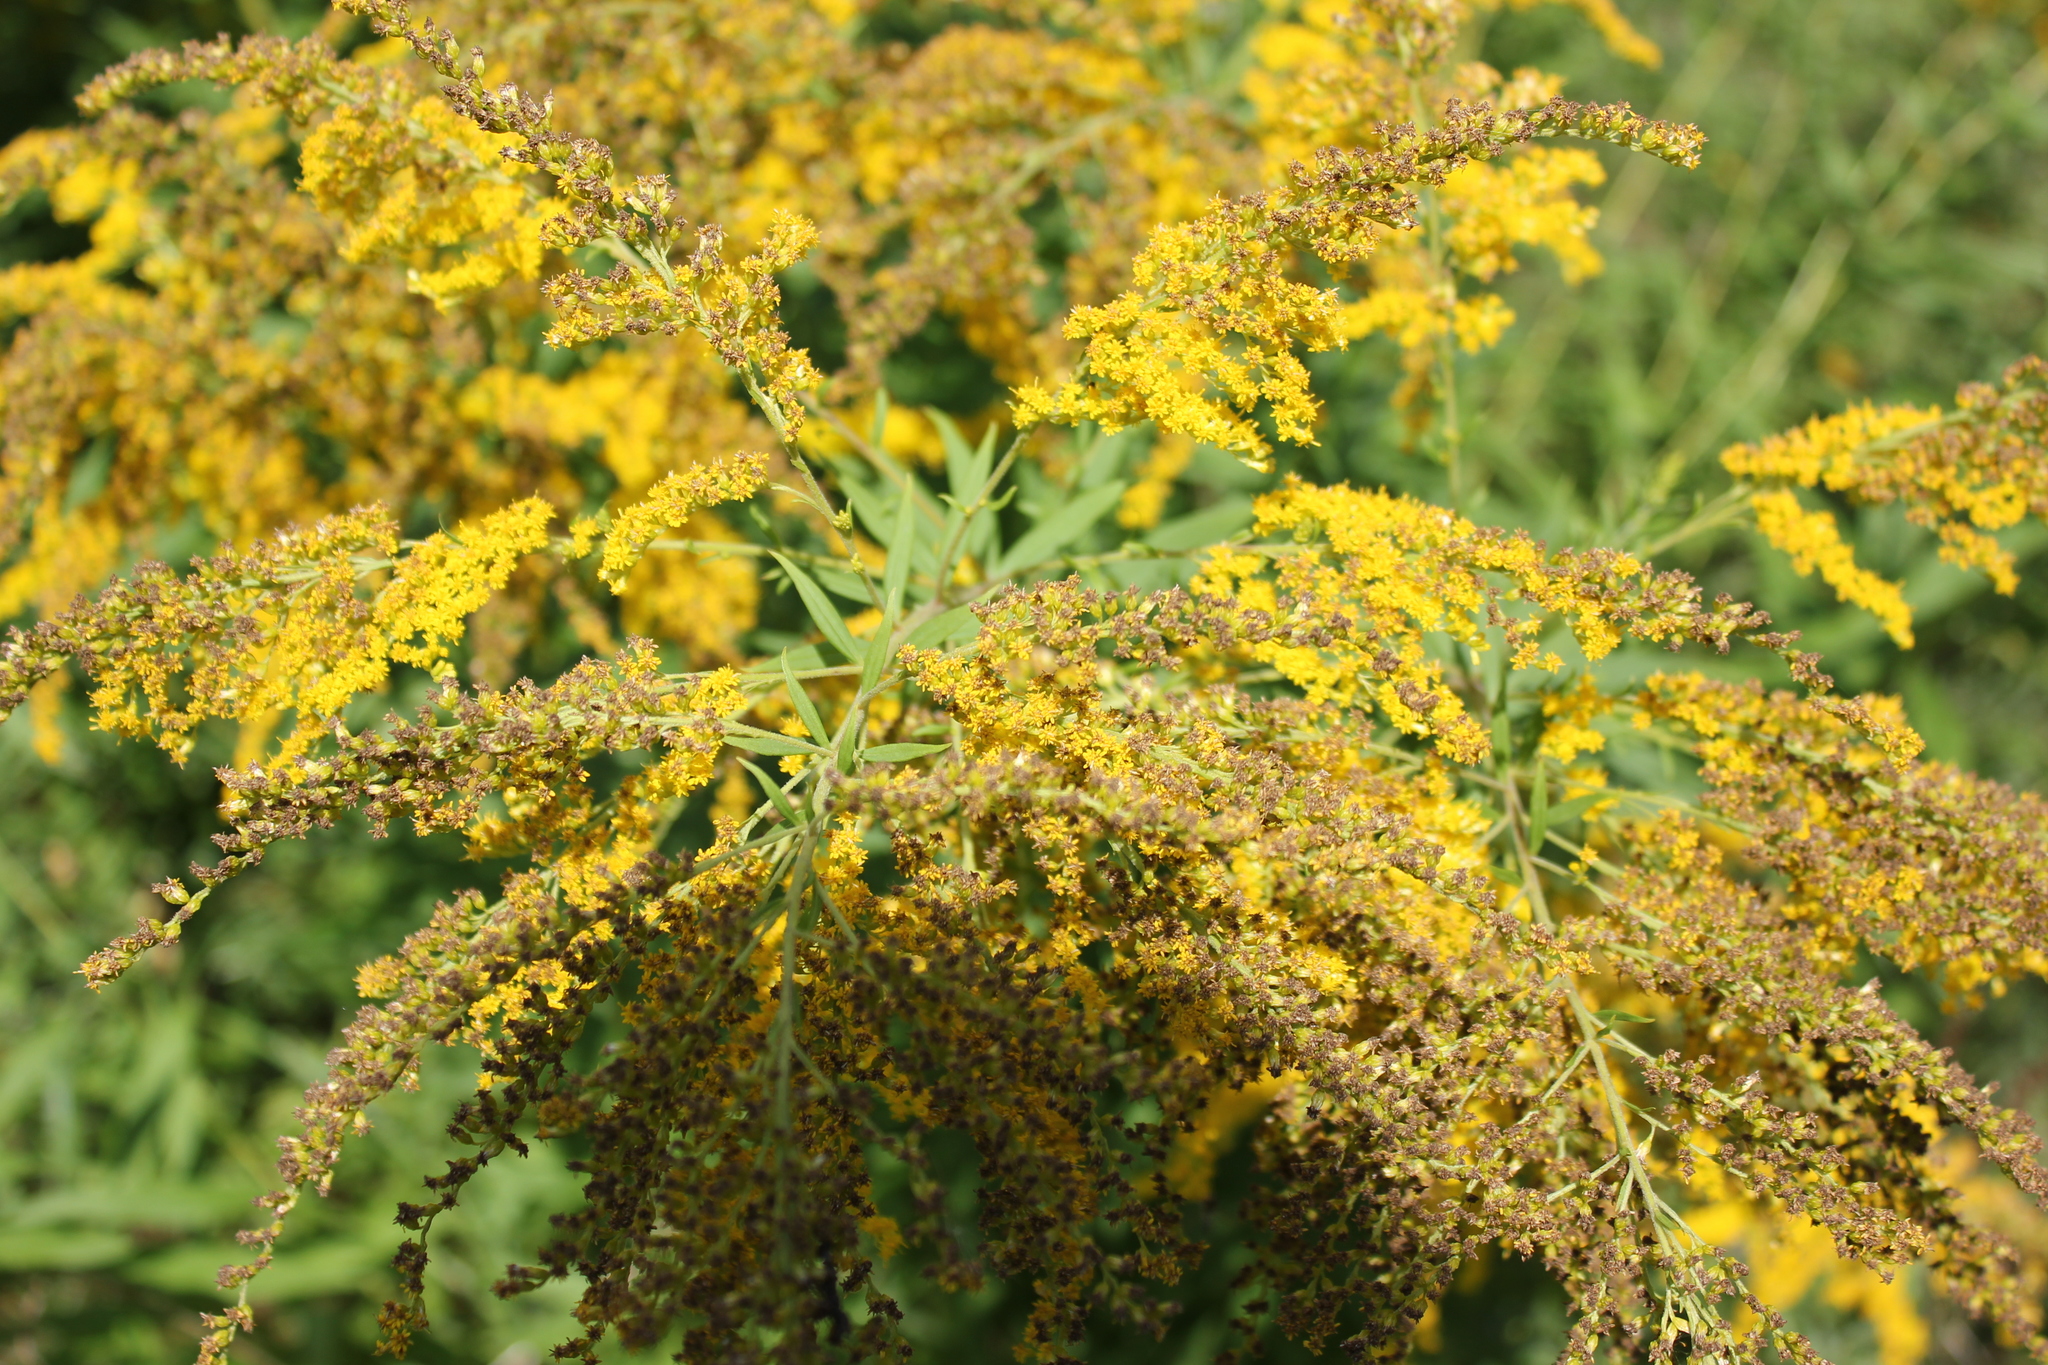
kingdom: Plantae
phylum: Tracheophyta
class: Magnoliopsida
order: Asterales
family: Asteraceae
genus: Solidago
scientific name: Solidago canadensis
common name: Canada goldenrod
